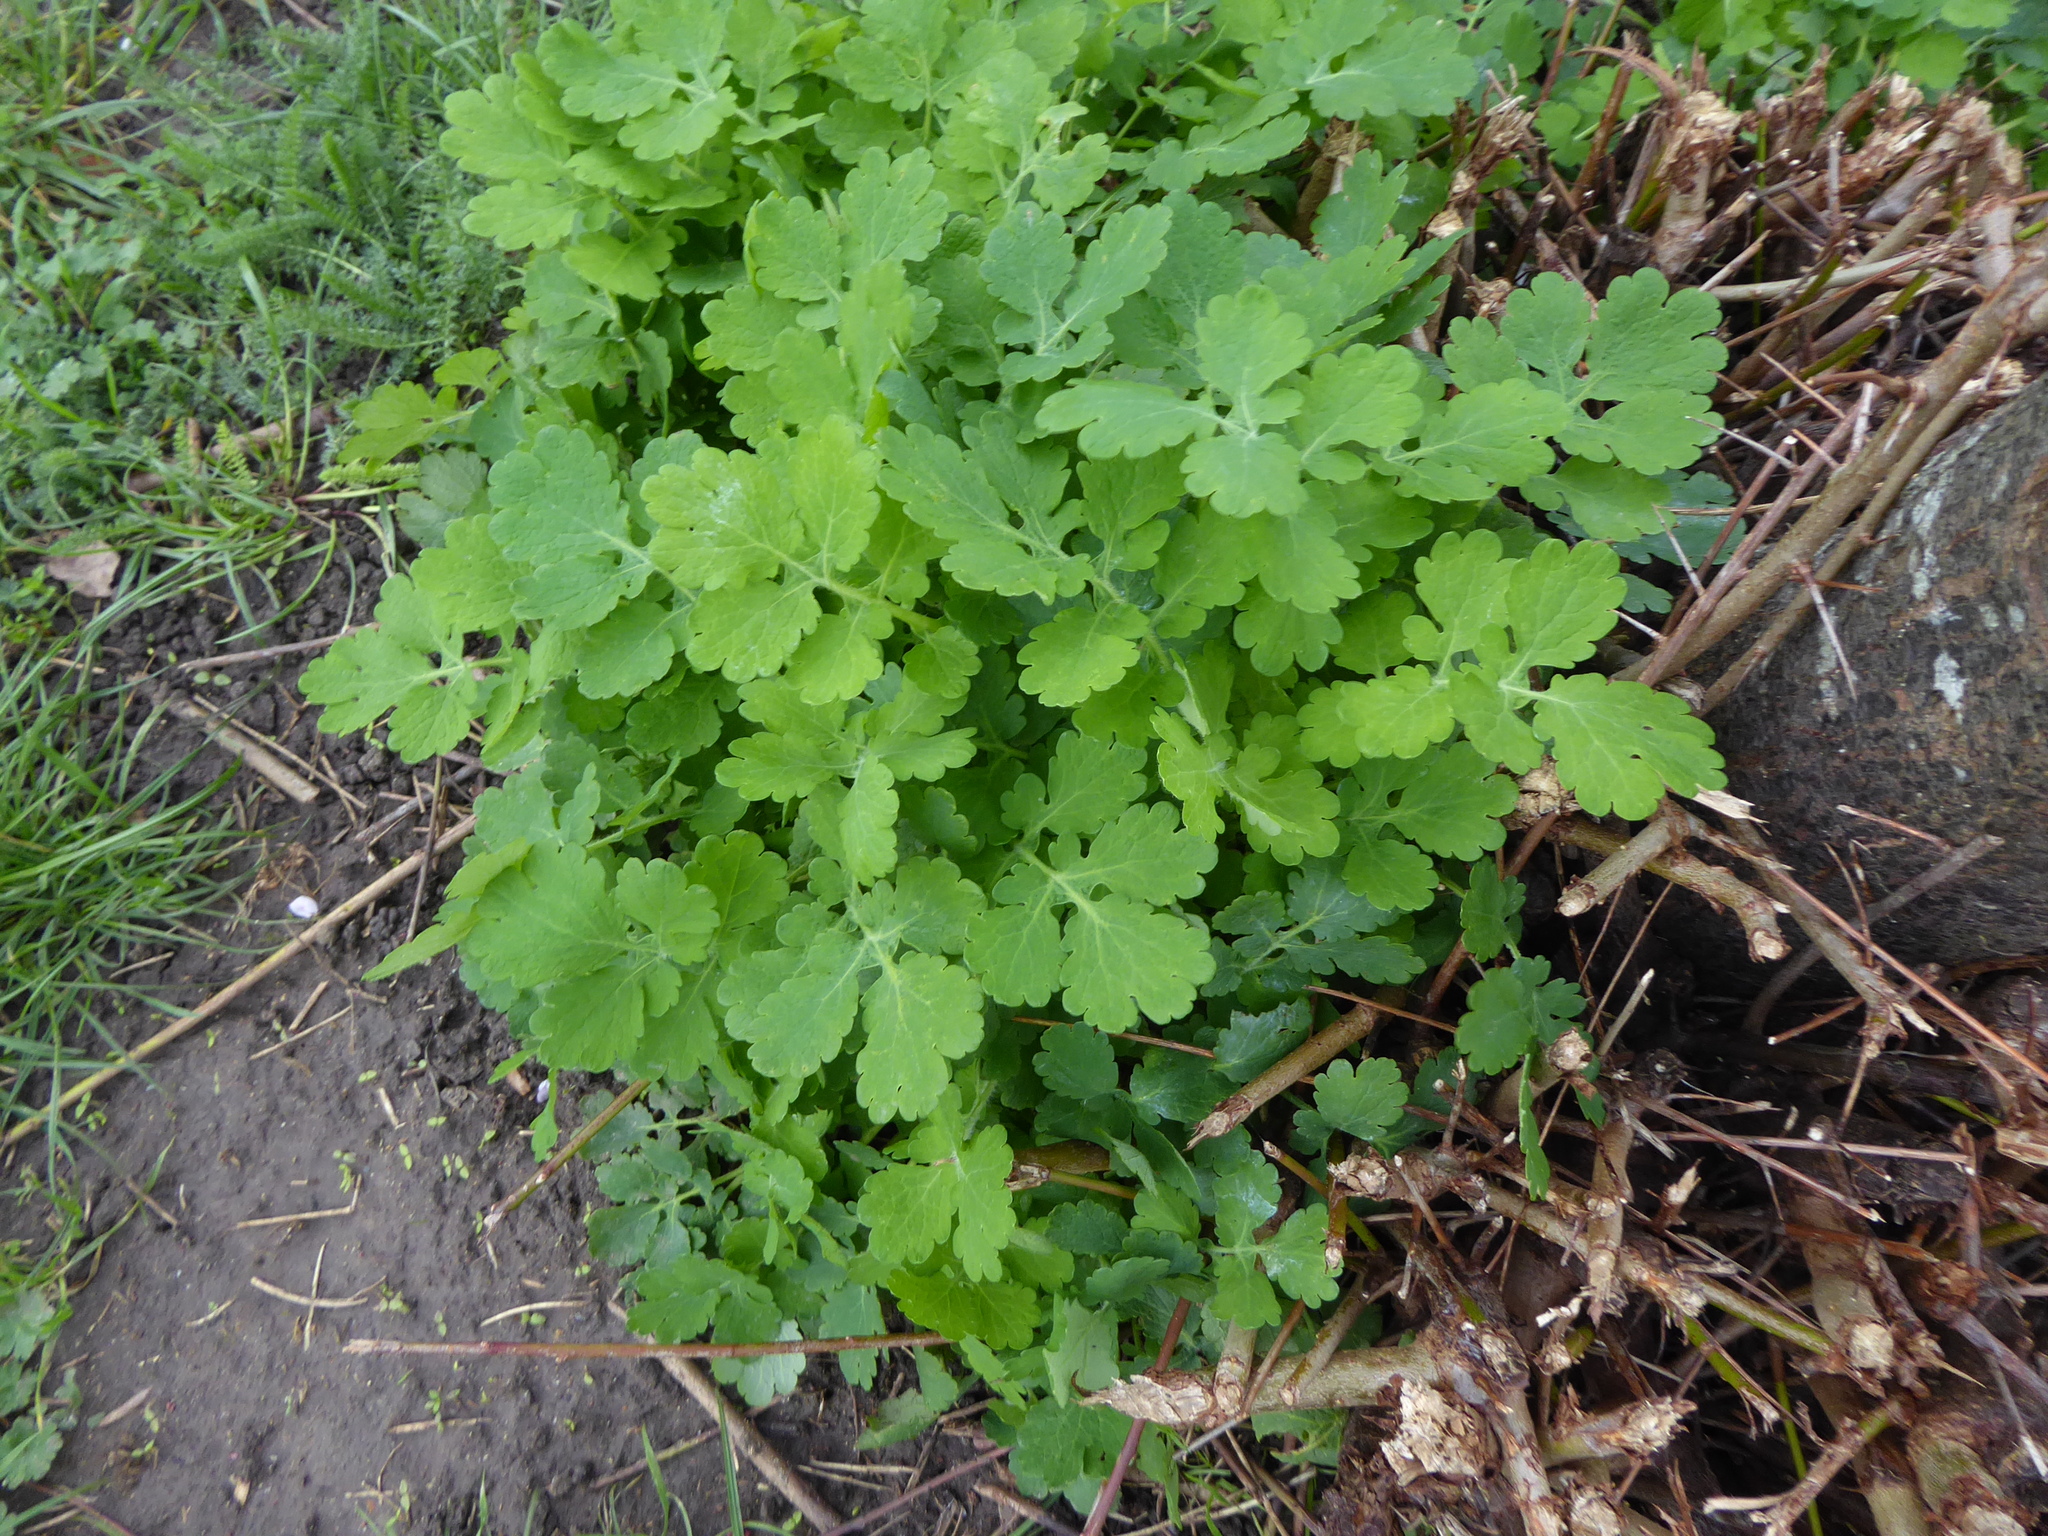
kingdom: Plantae
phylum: Tracheophyta
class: Magnoliopsida
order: Ranunculales
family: Papaveraceae
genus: Chelidonium
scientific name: Chelidonium majus
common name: Greater celandine
